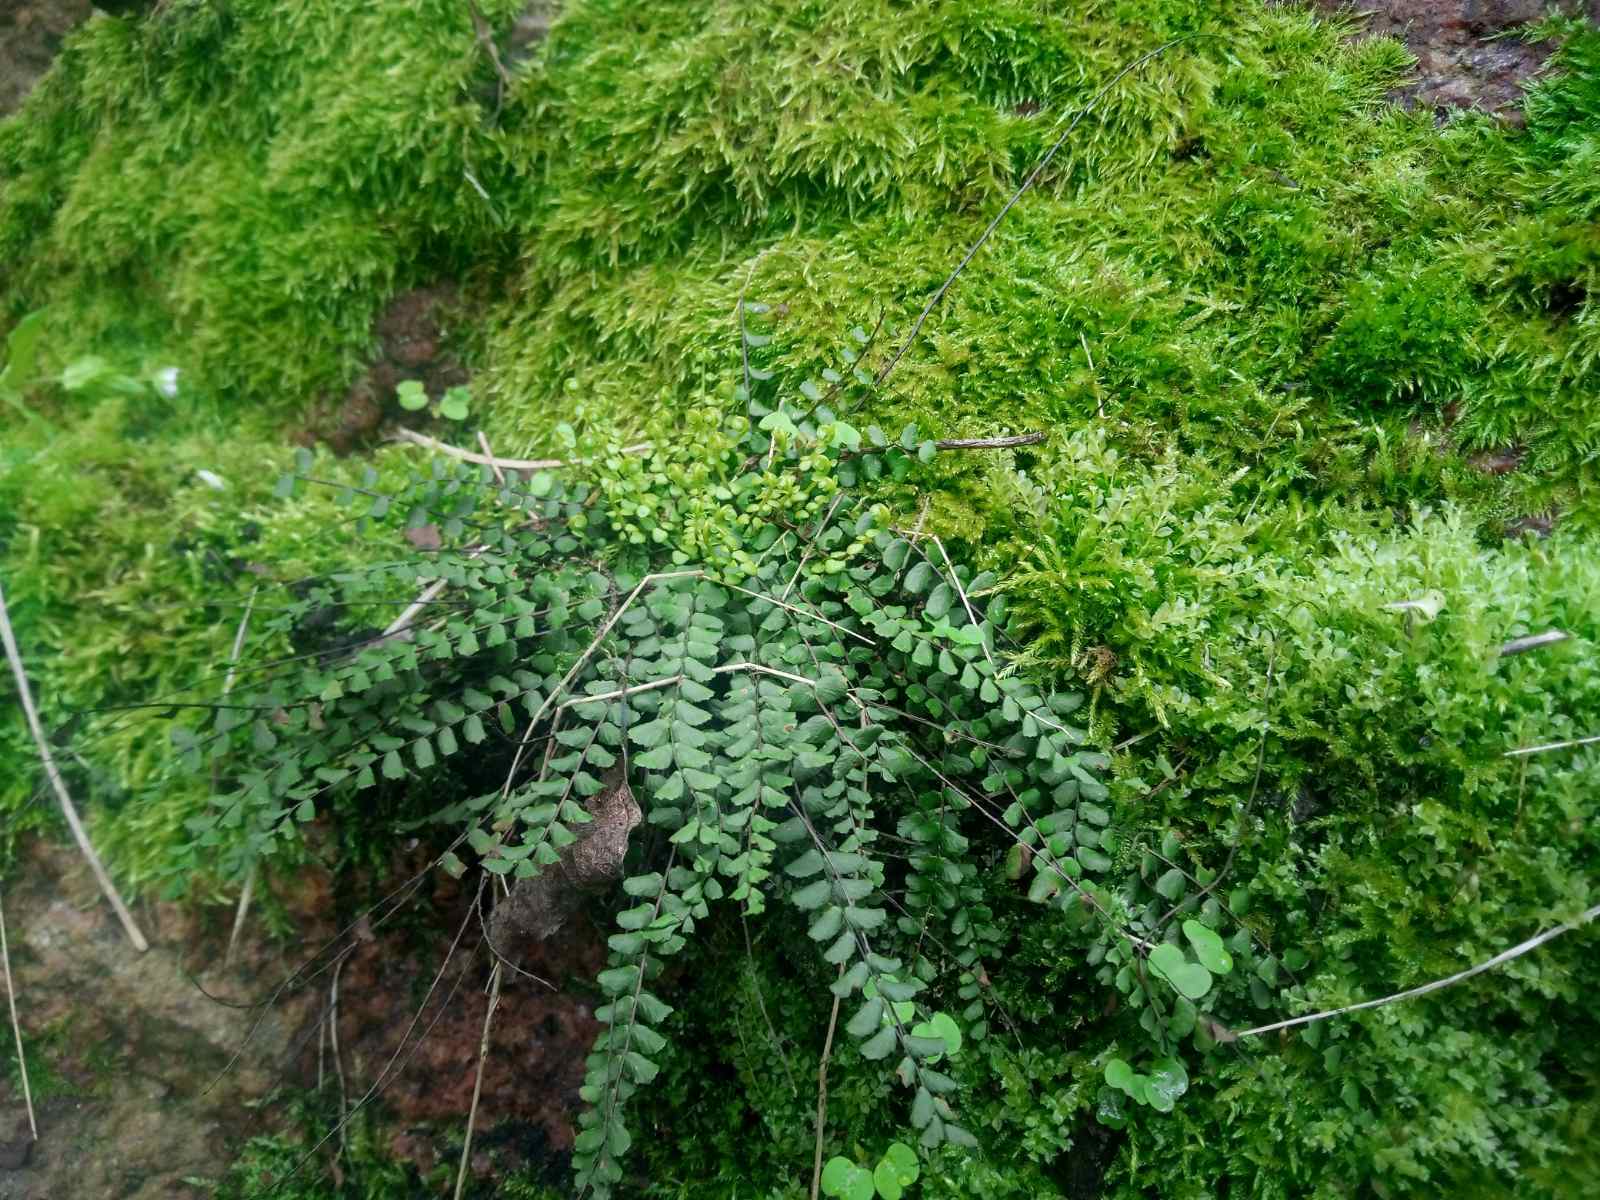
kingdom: Plantae
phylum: Tracheophyta
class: Polypodiopsida
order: Polypodiales
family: Aspleniaceae
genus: Asplenium
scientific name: Asplenium trichomanes
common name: Maidenhair spleenwort
